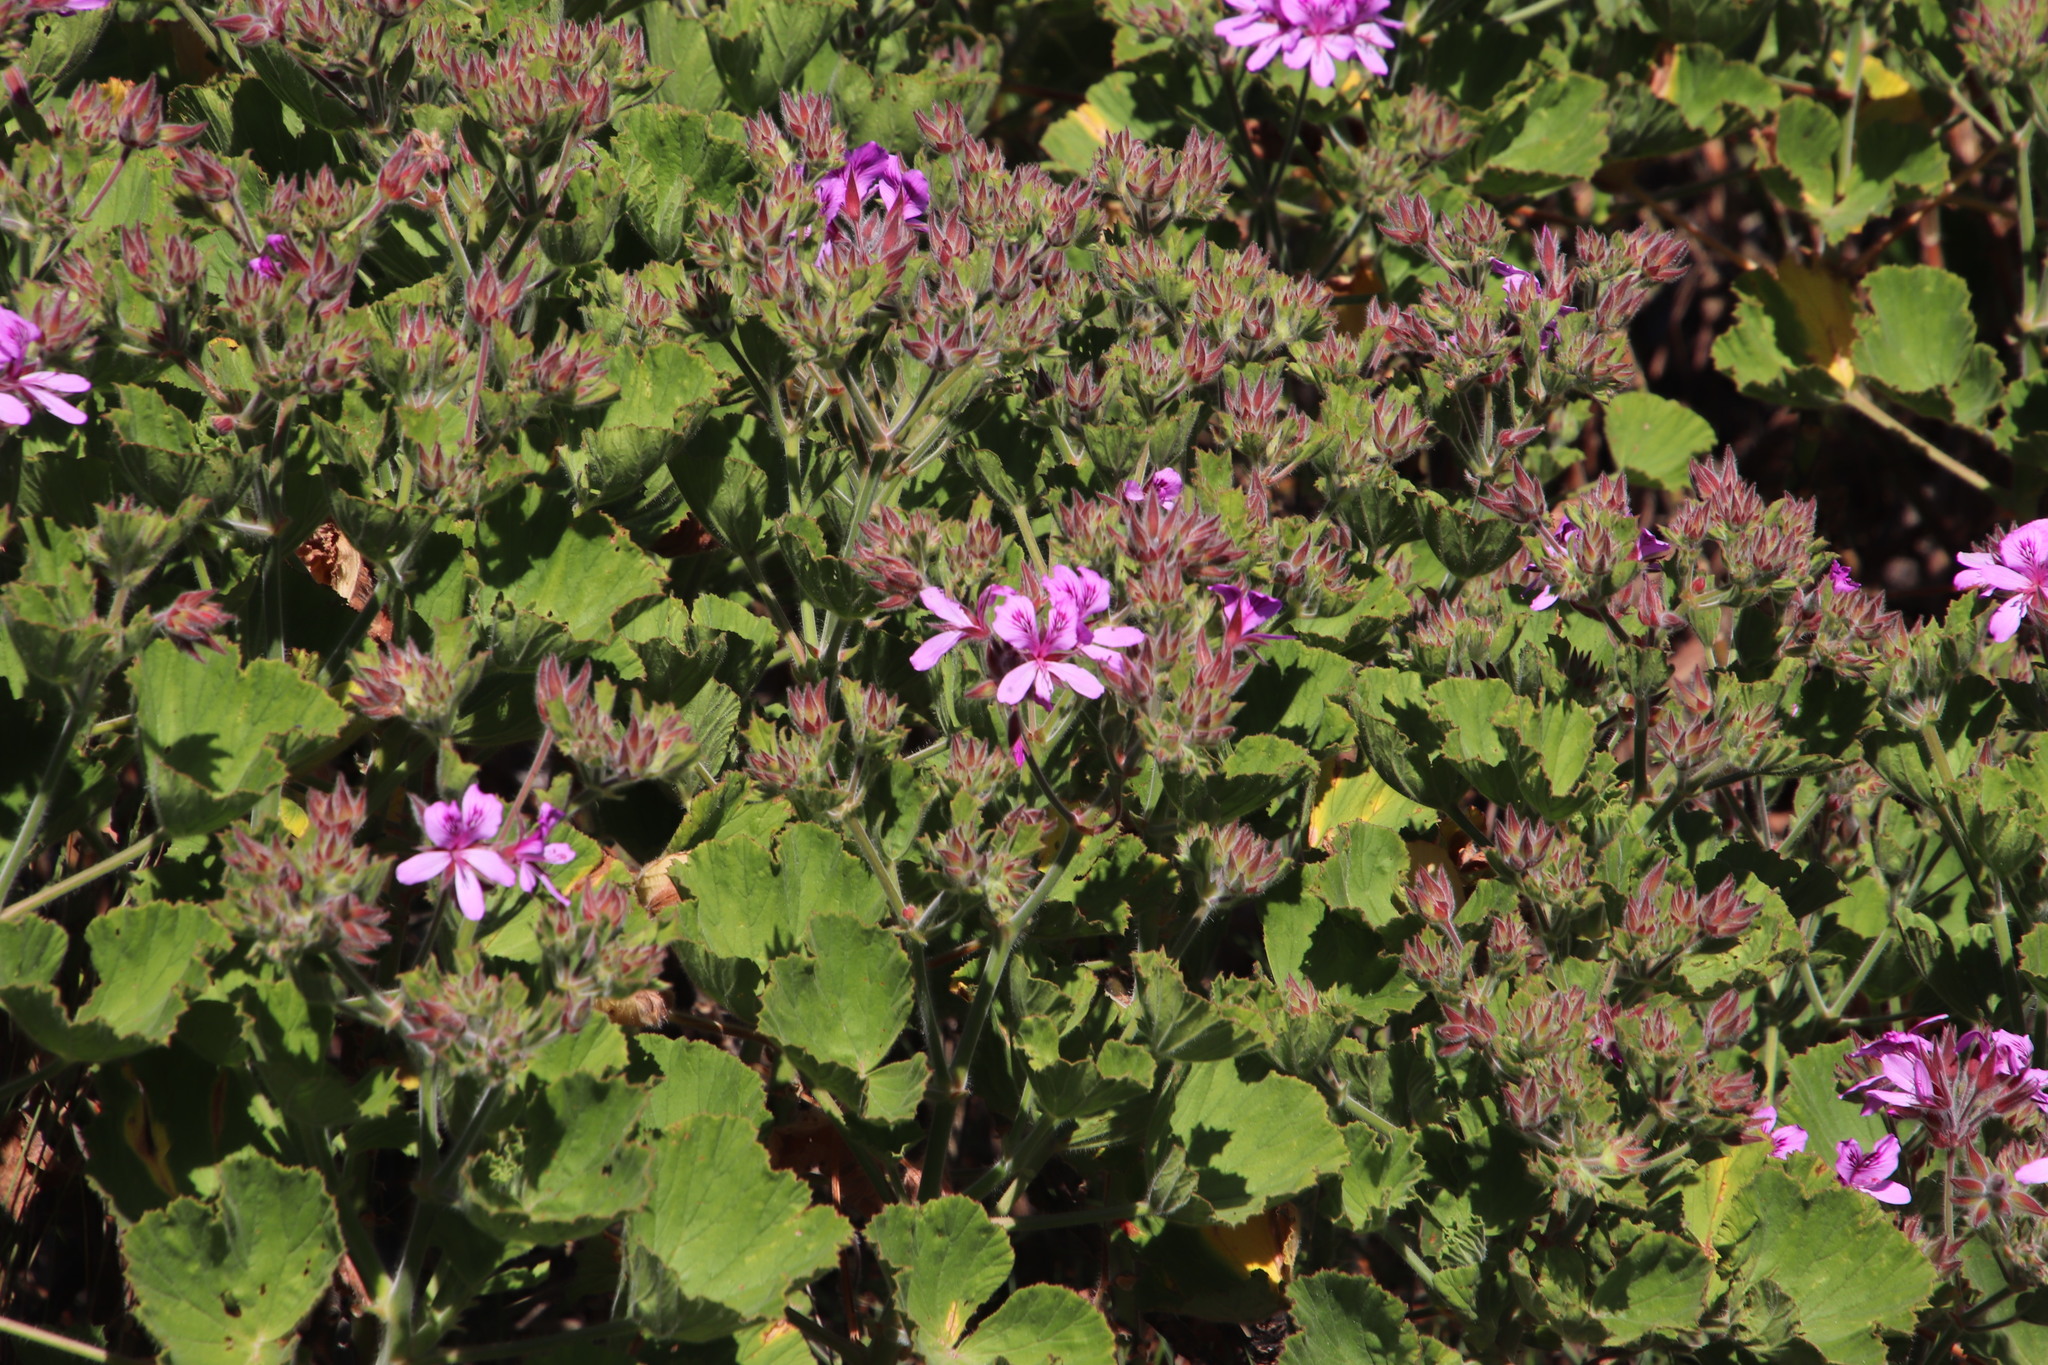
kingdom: Plantae
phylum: Tracheophyta
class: Magnoliopsida
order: Geraniales
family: Geraniaceae
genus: Pelargonium
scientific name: Pelargonium cucullatum
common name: Tree pelargonium
